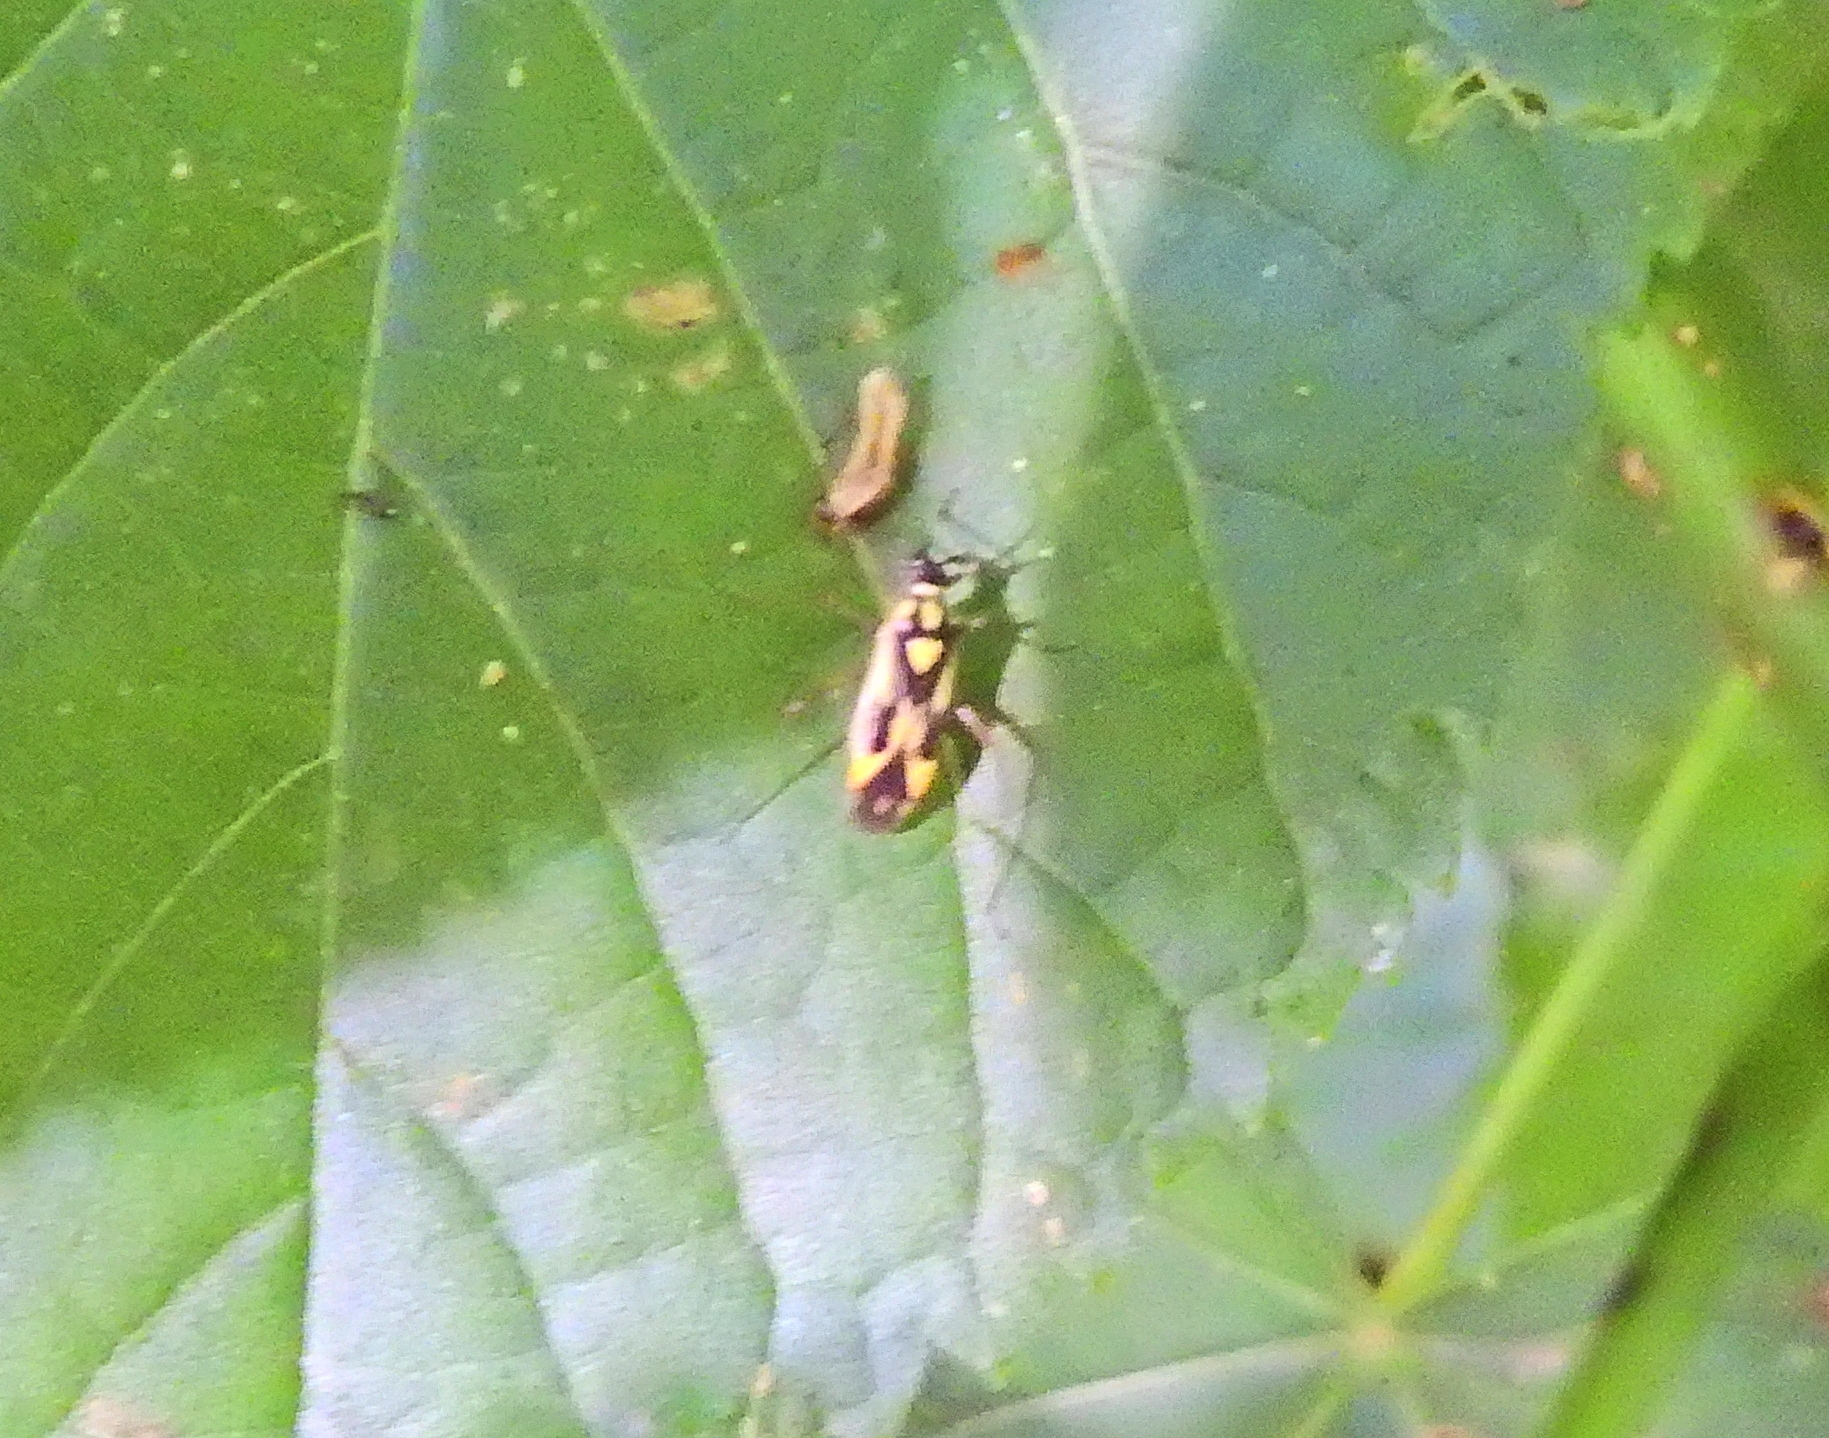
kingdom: Animalia
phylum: Arthropoda
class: Insecta
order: Hemiptera
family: Miridae
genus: Grypocoris
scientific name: Grypocoris stysi
